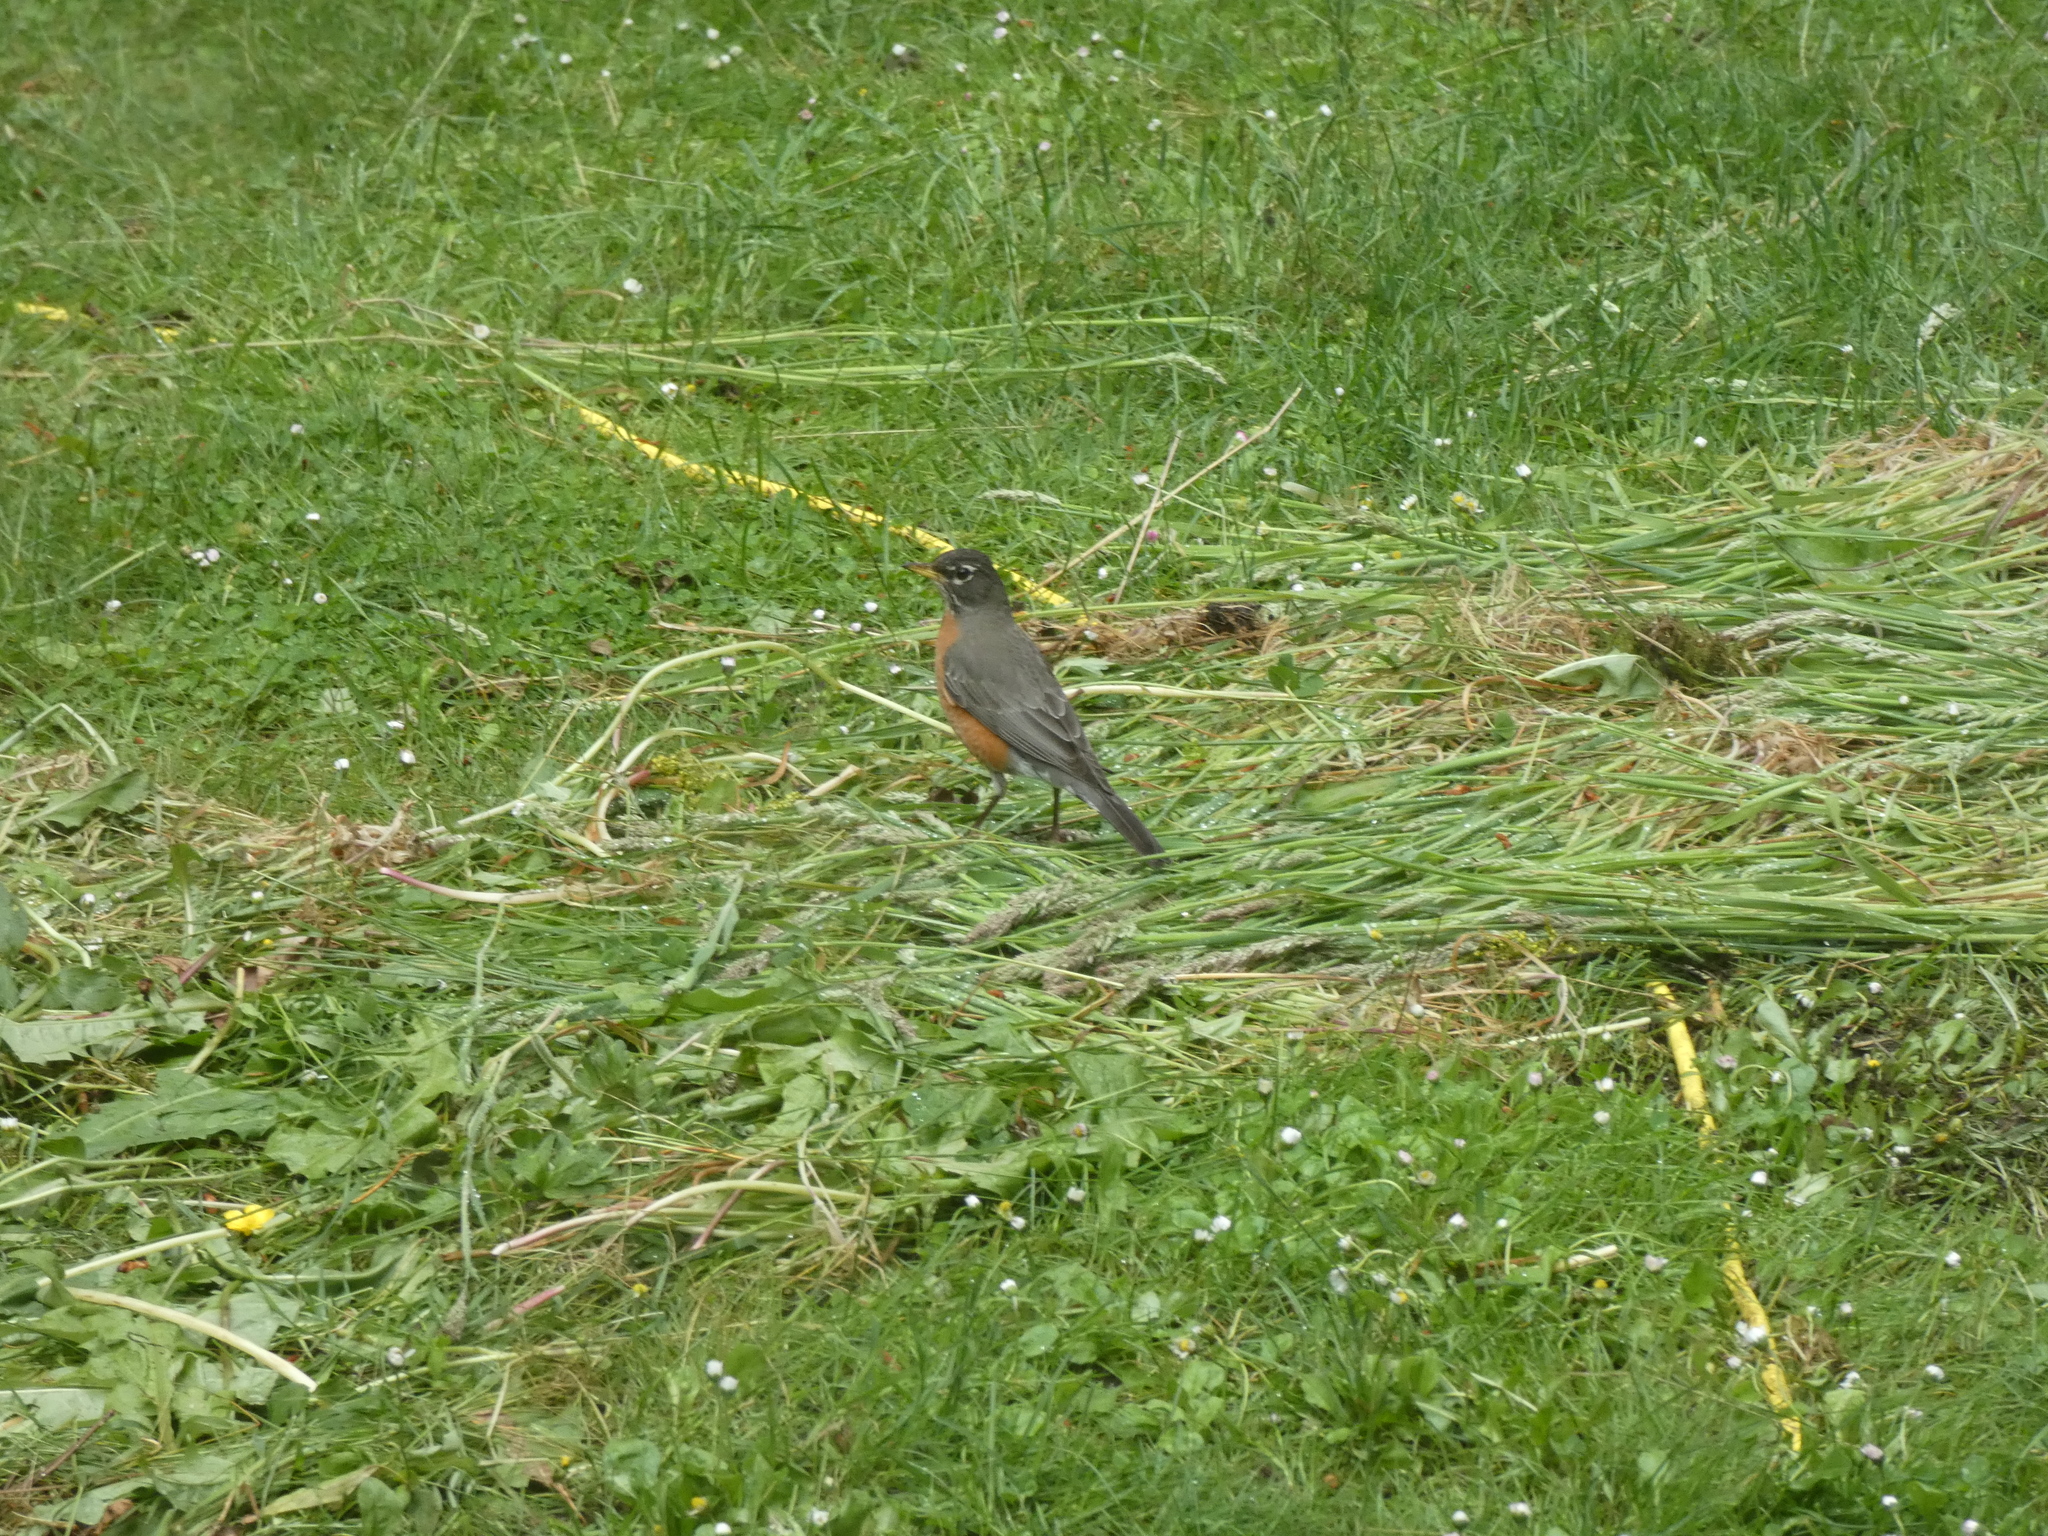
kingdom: Animalia
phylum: Chordata
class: Aves
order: Passeriformes
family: Turdidae
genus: Turdus
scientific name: Turdus migratorius
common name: American robin
